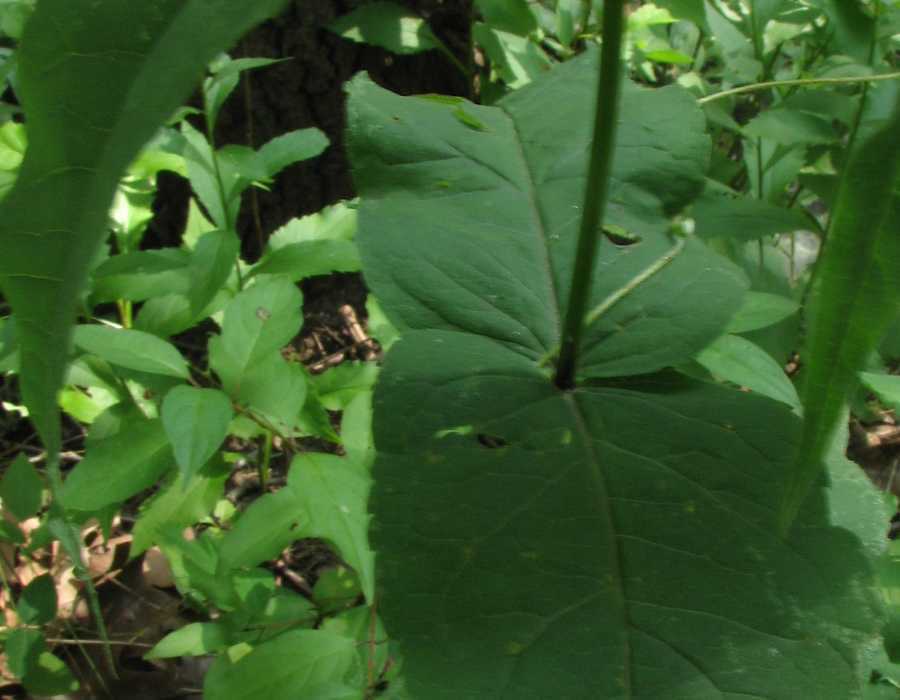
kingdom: Plantae
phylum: Tracheophyta
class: Magnoliopsida
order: Asterales
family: Asteraceae
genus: Eupatorium
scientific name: Eupatorium sessilifolium
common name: Upland boneset
